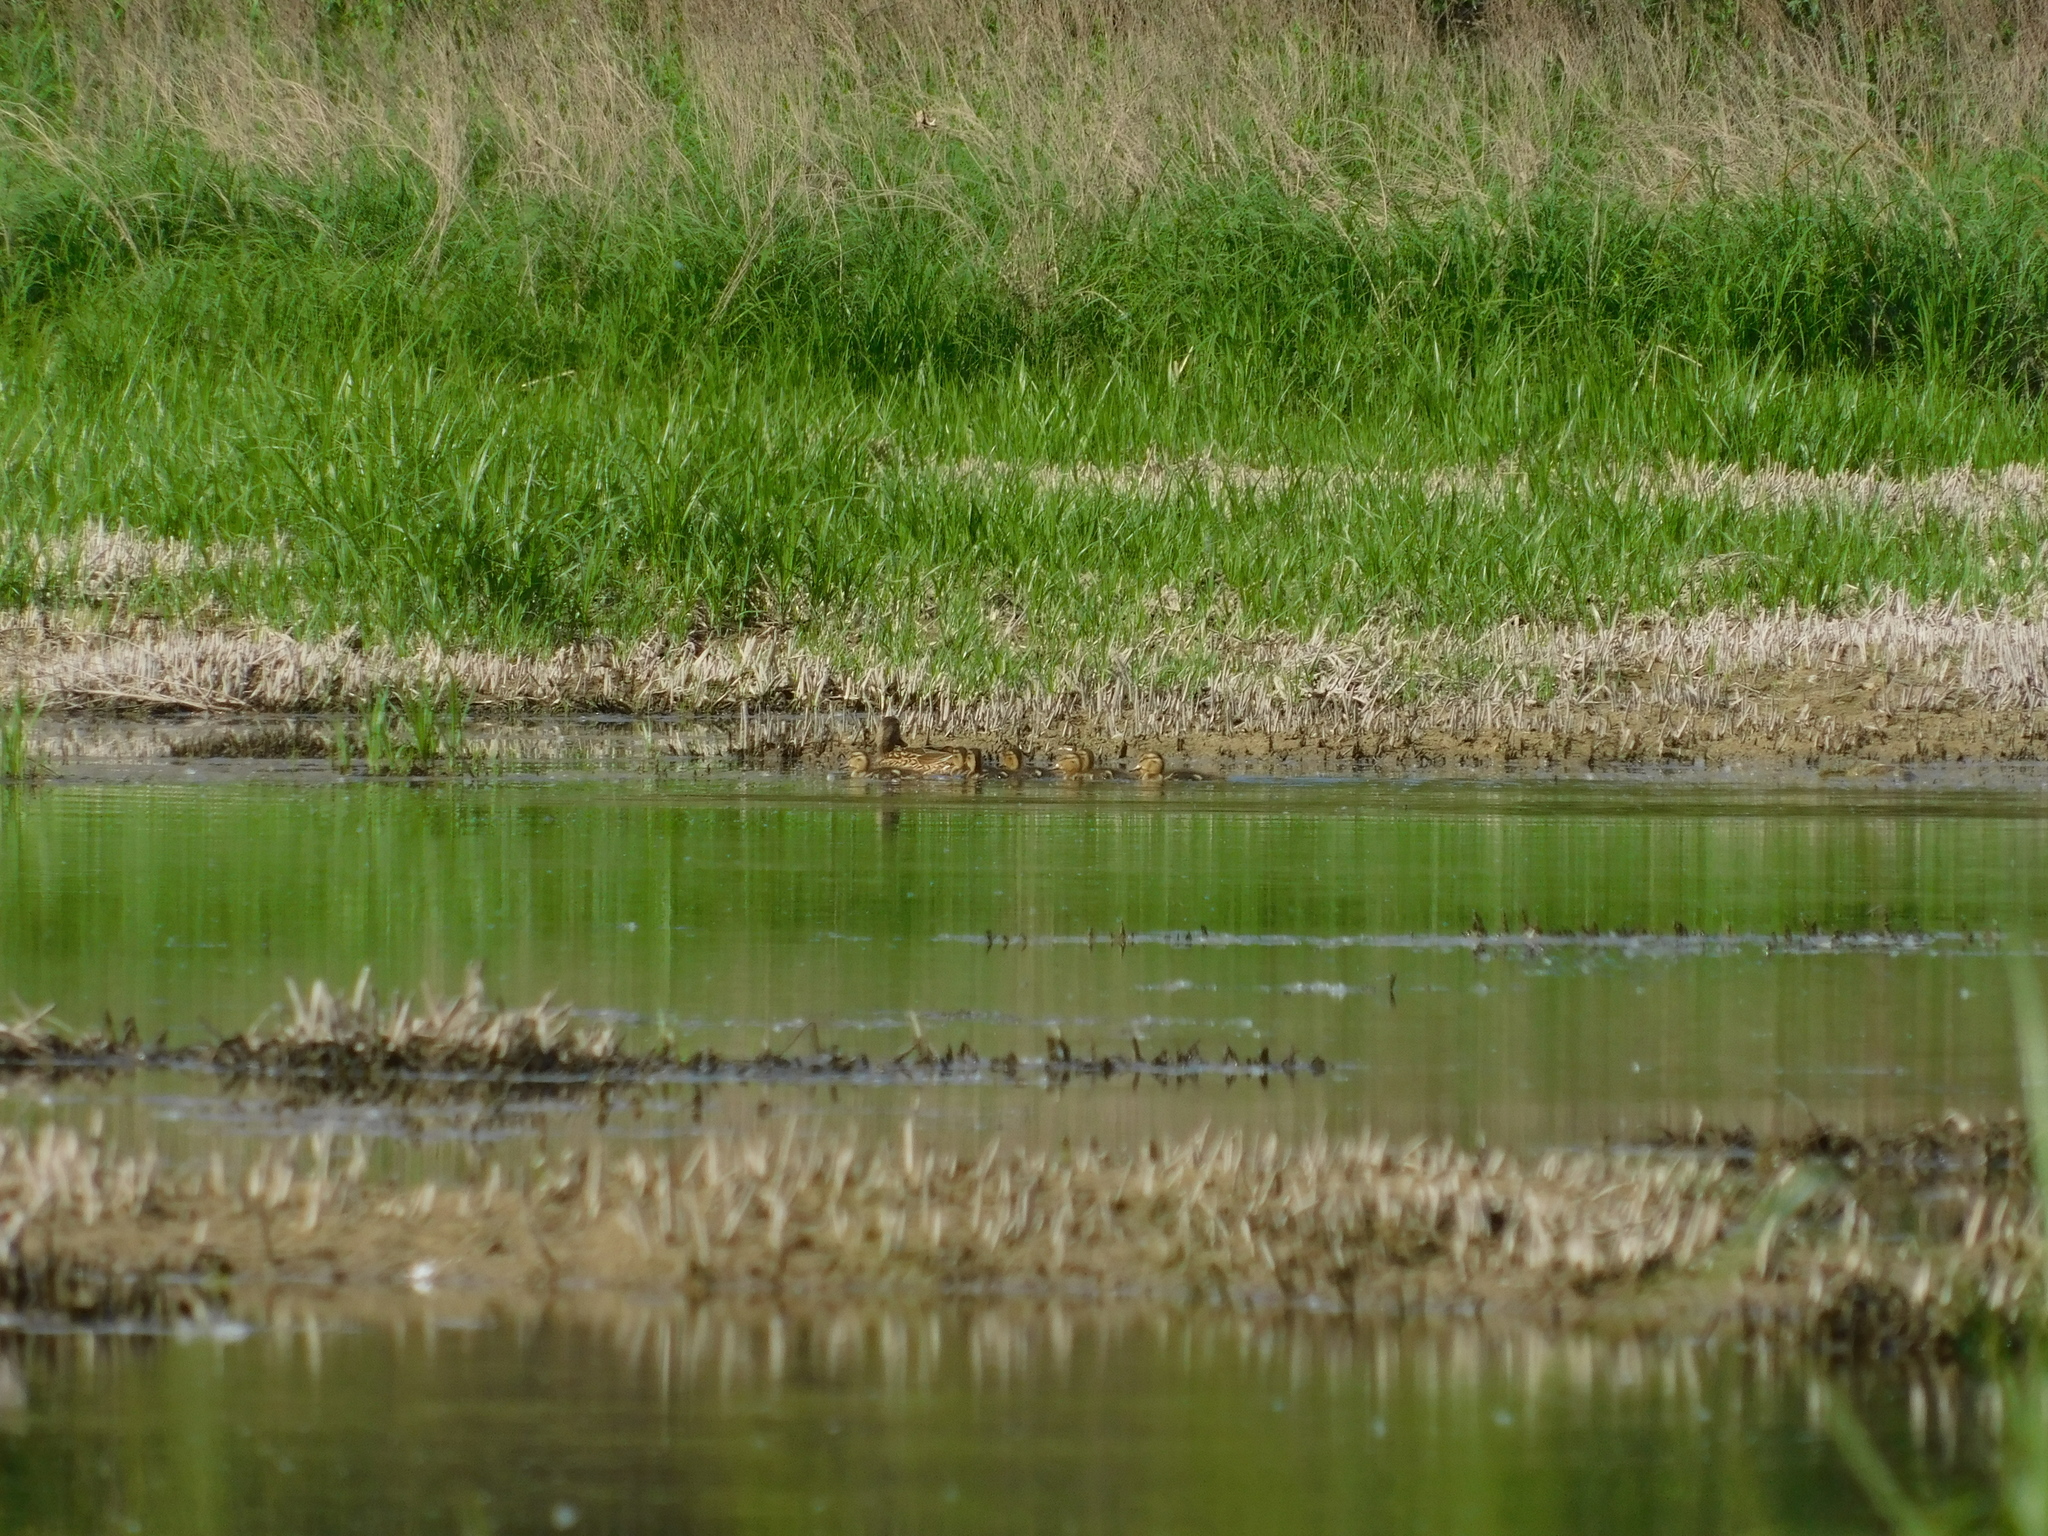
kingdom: Animalia
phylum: Chordata
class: Aves
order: Anseriformes
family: Anatidae
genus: Anas
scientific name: Anas platyrhynchos
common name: Mallard
